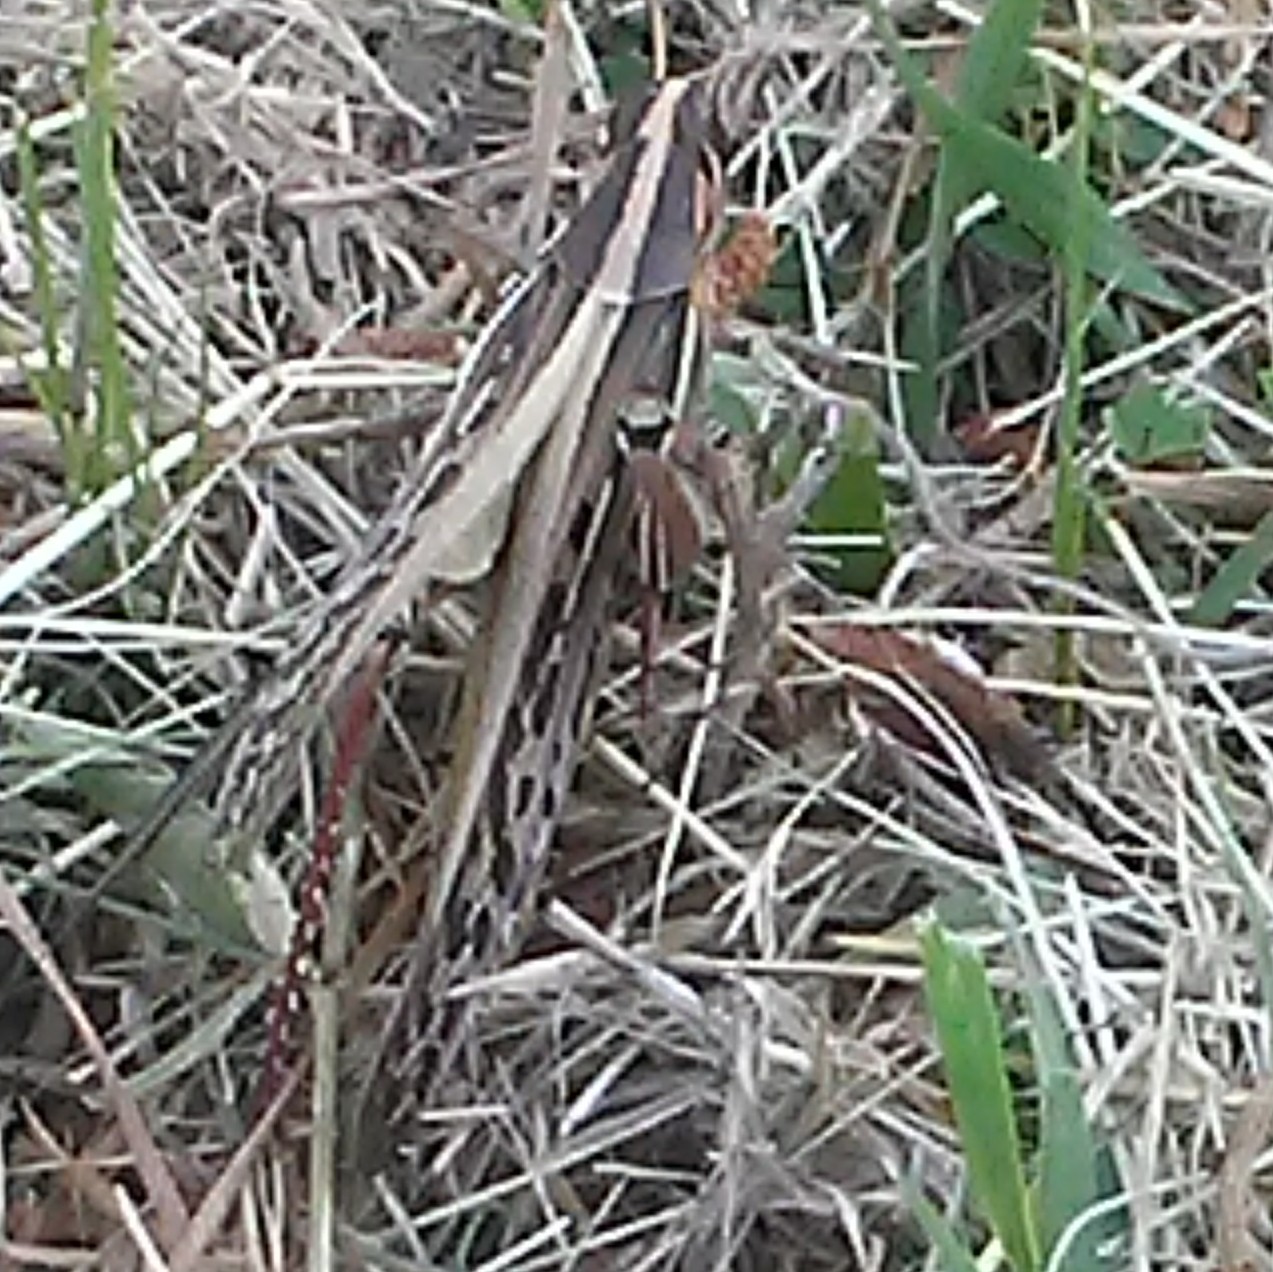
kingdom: Animalia
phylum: Arthropoda
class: Insecta
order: Orthoptera
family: Acrididae
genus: Schistocerca
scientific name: Schistocerca americana
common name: American bird locust
